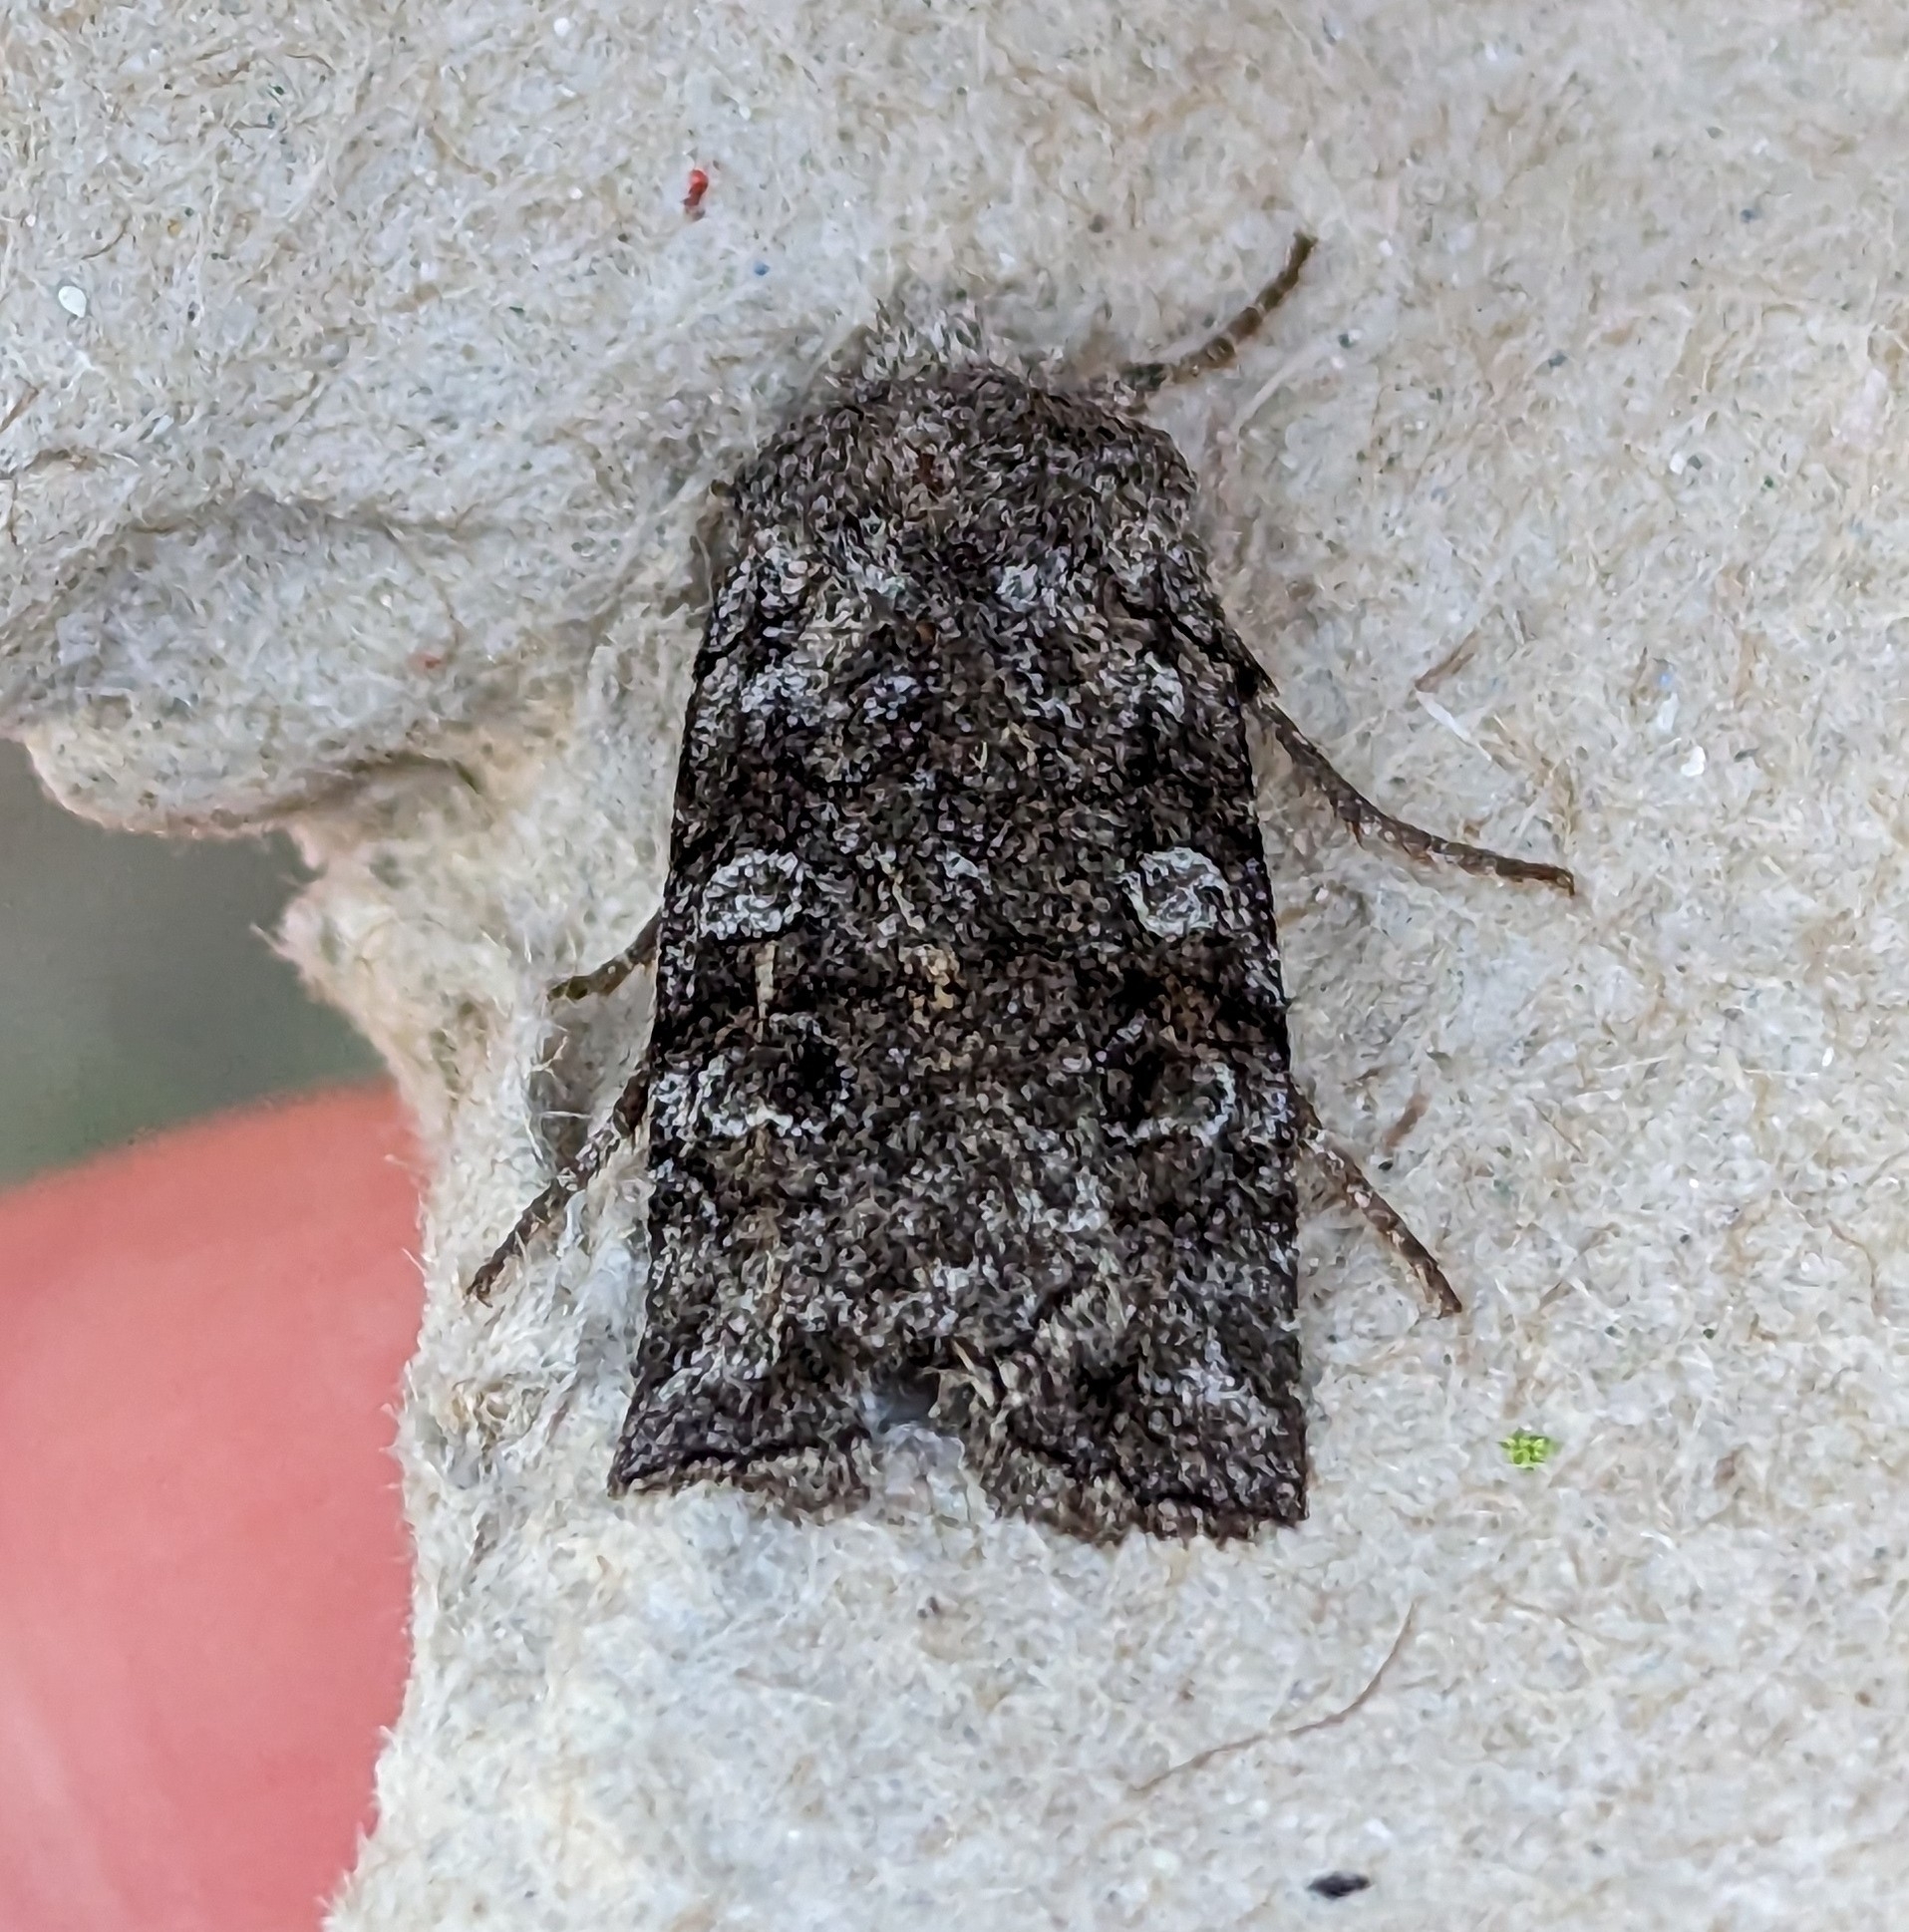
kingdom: Animalia
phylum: Arthropoda
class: Insecta
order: Lepidoptera
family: Noctuidae
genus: Litholomia
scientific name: Litholomia napaea
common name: False pinion moth
